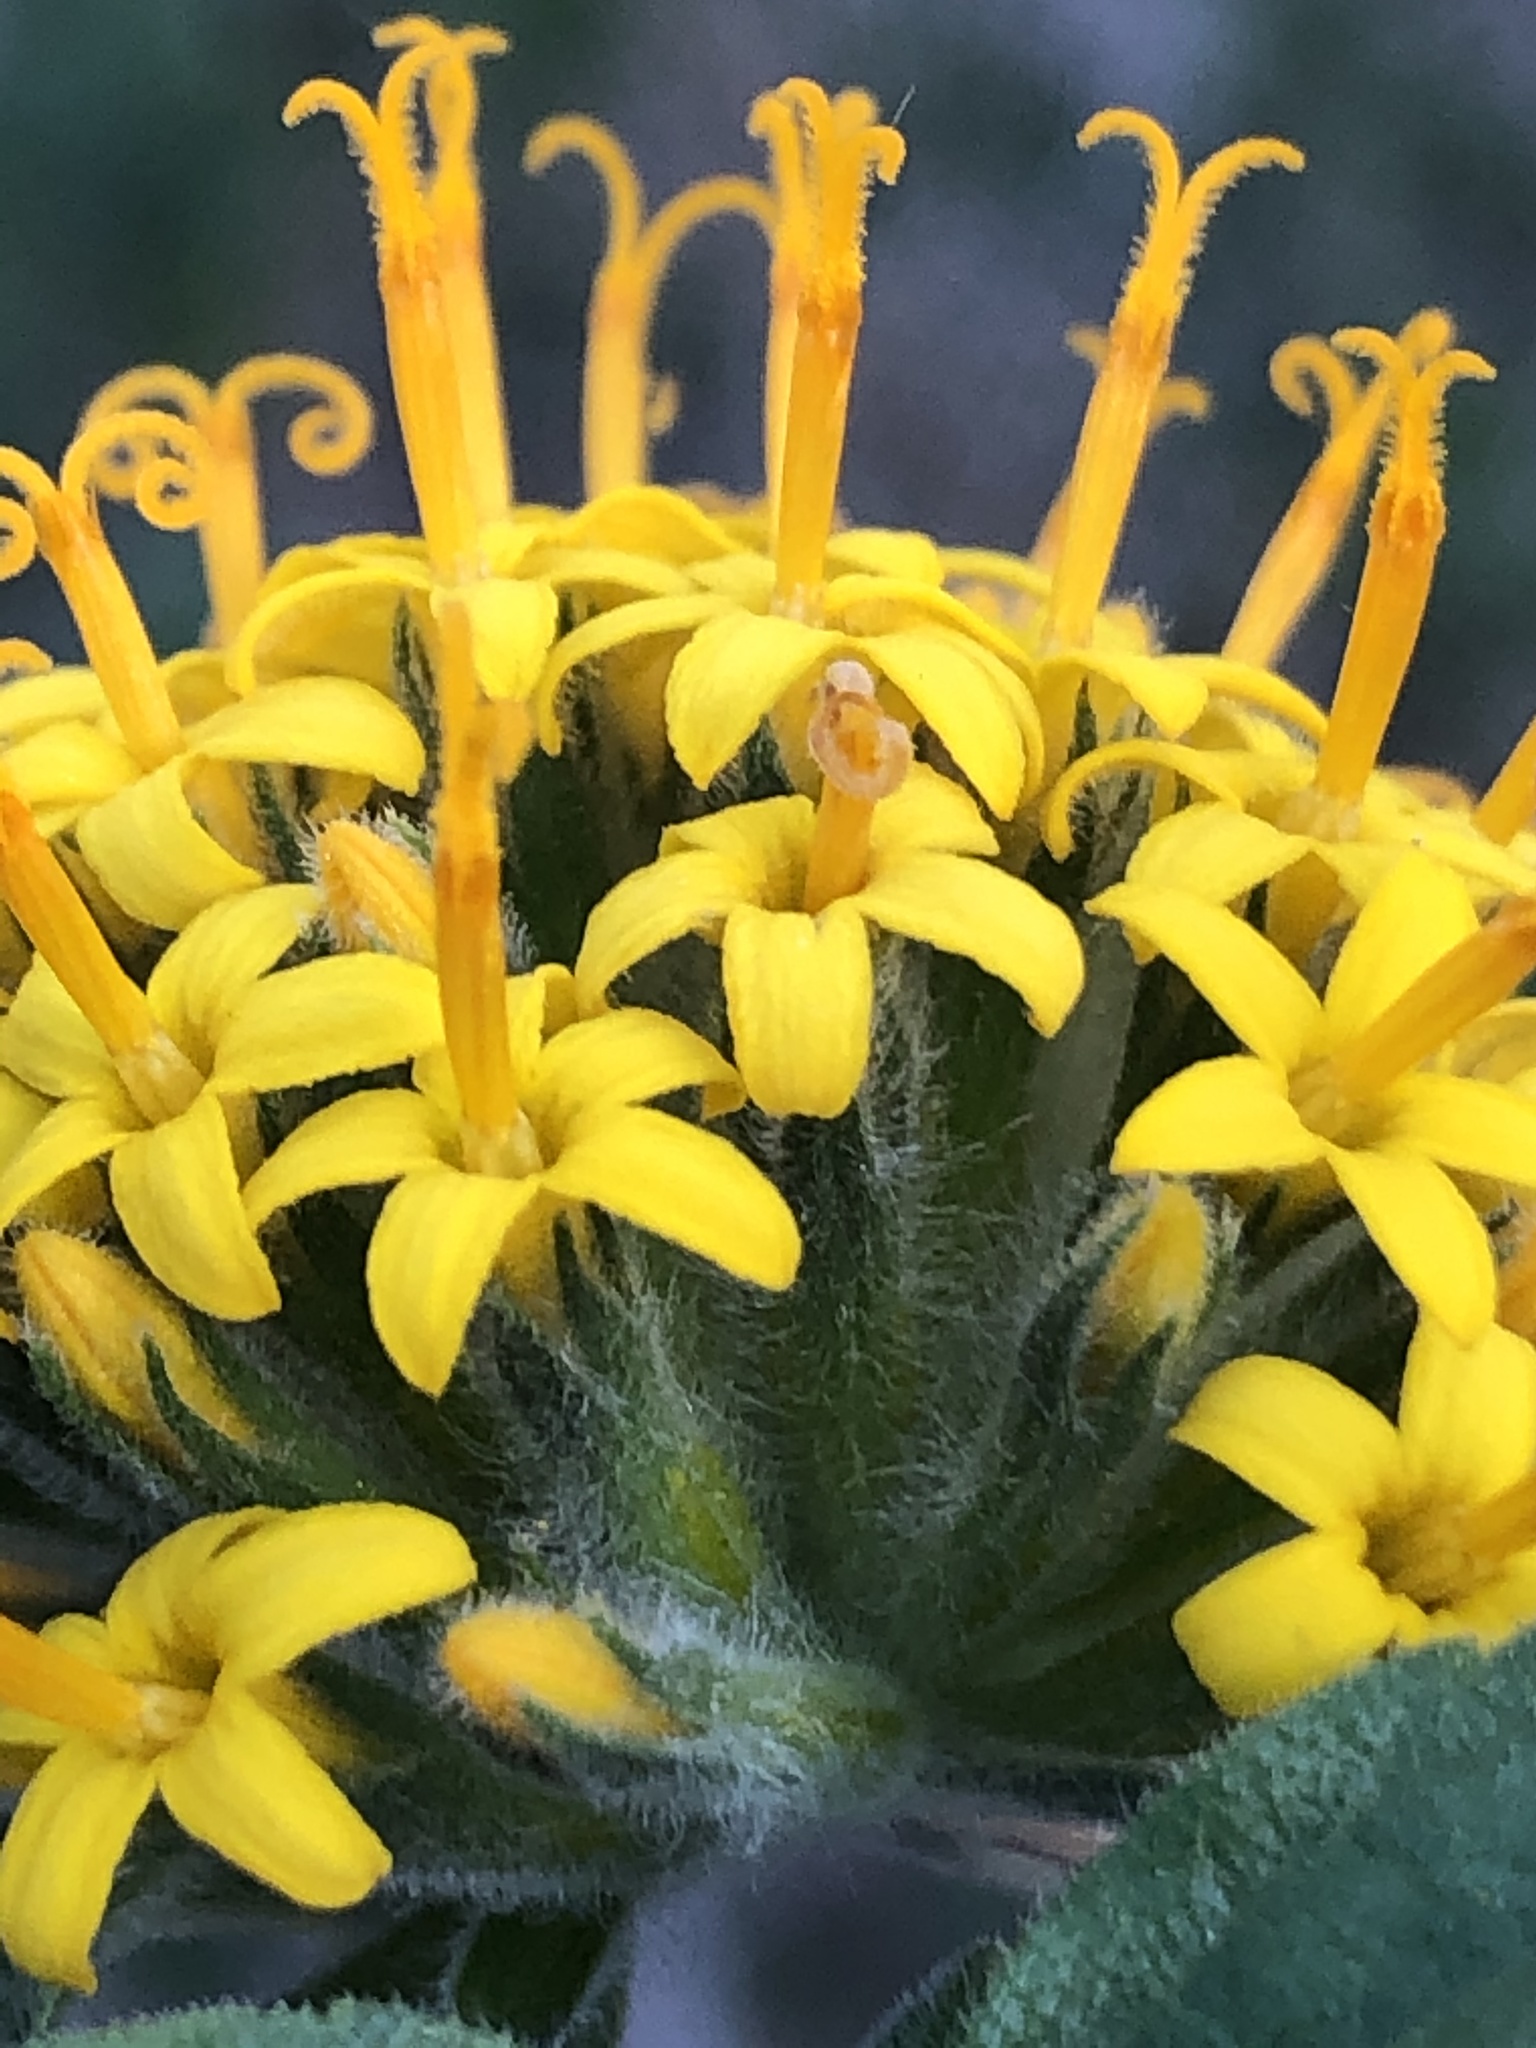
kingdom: Plantae
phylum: Tracheophyta
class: Magnoliopsida
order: Asterales
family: Asteraceae
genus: Lagascea
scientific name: Lagascea decipiens
